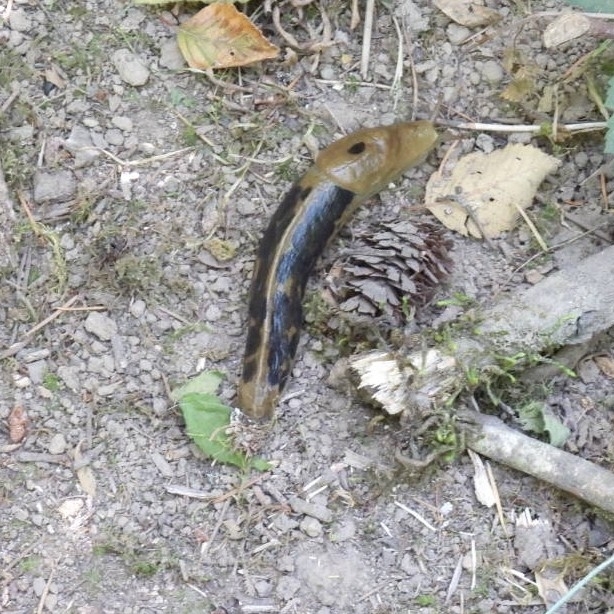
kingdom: Animalia
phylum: Mollusca
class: Gastropoda
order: Stylommatophora
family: Ariolimacidae
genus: Ariolimax
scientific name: Ariolimax columbianus
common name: Pacific banana slug
